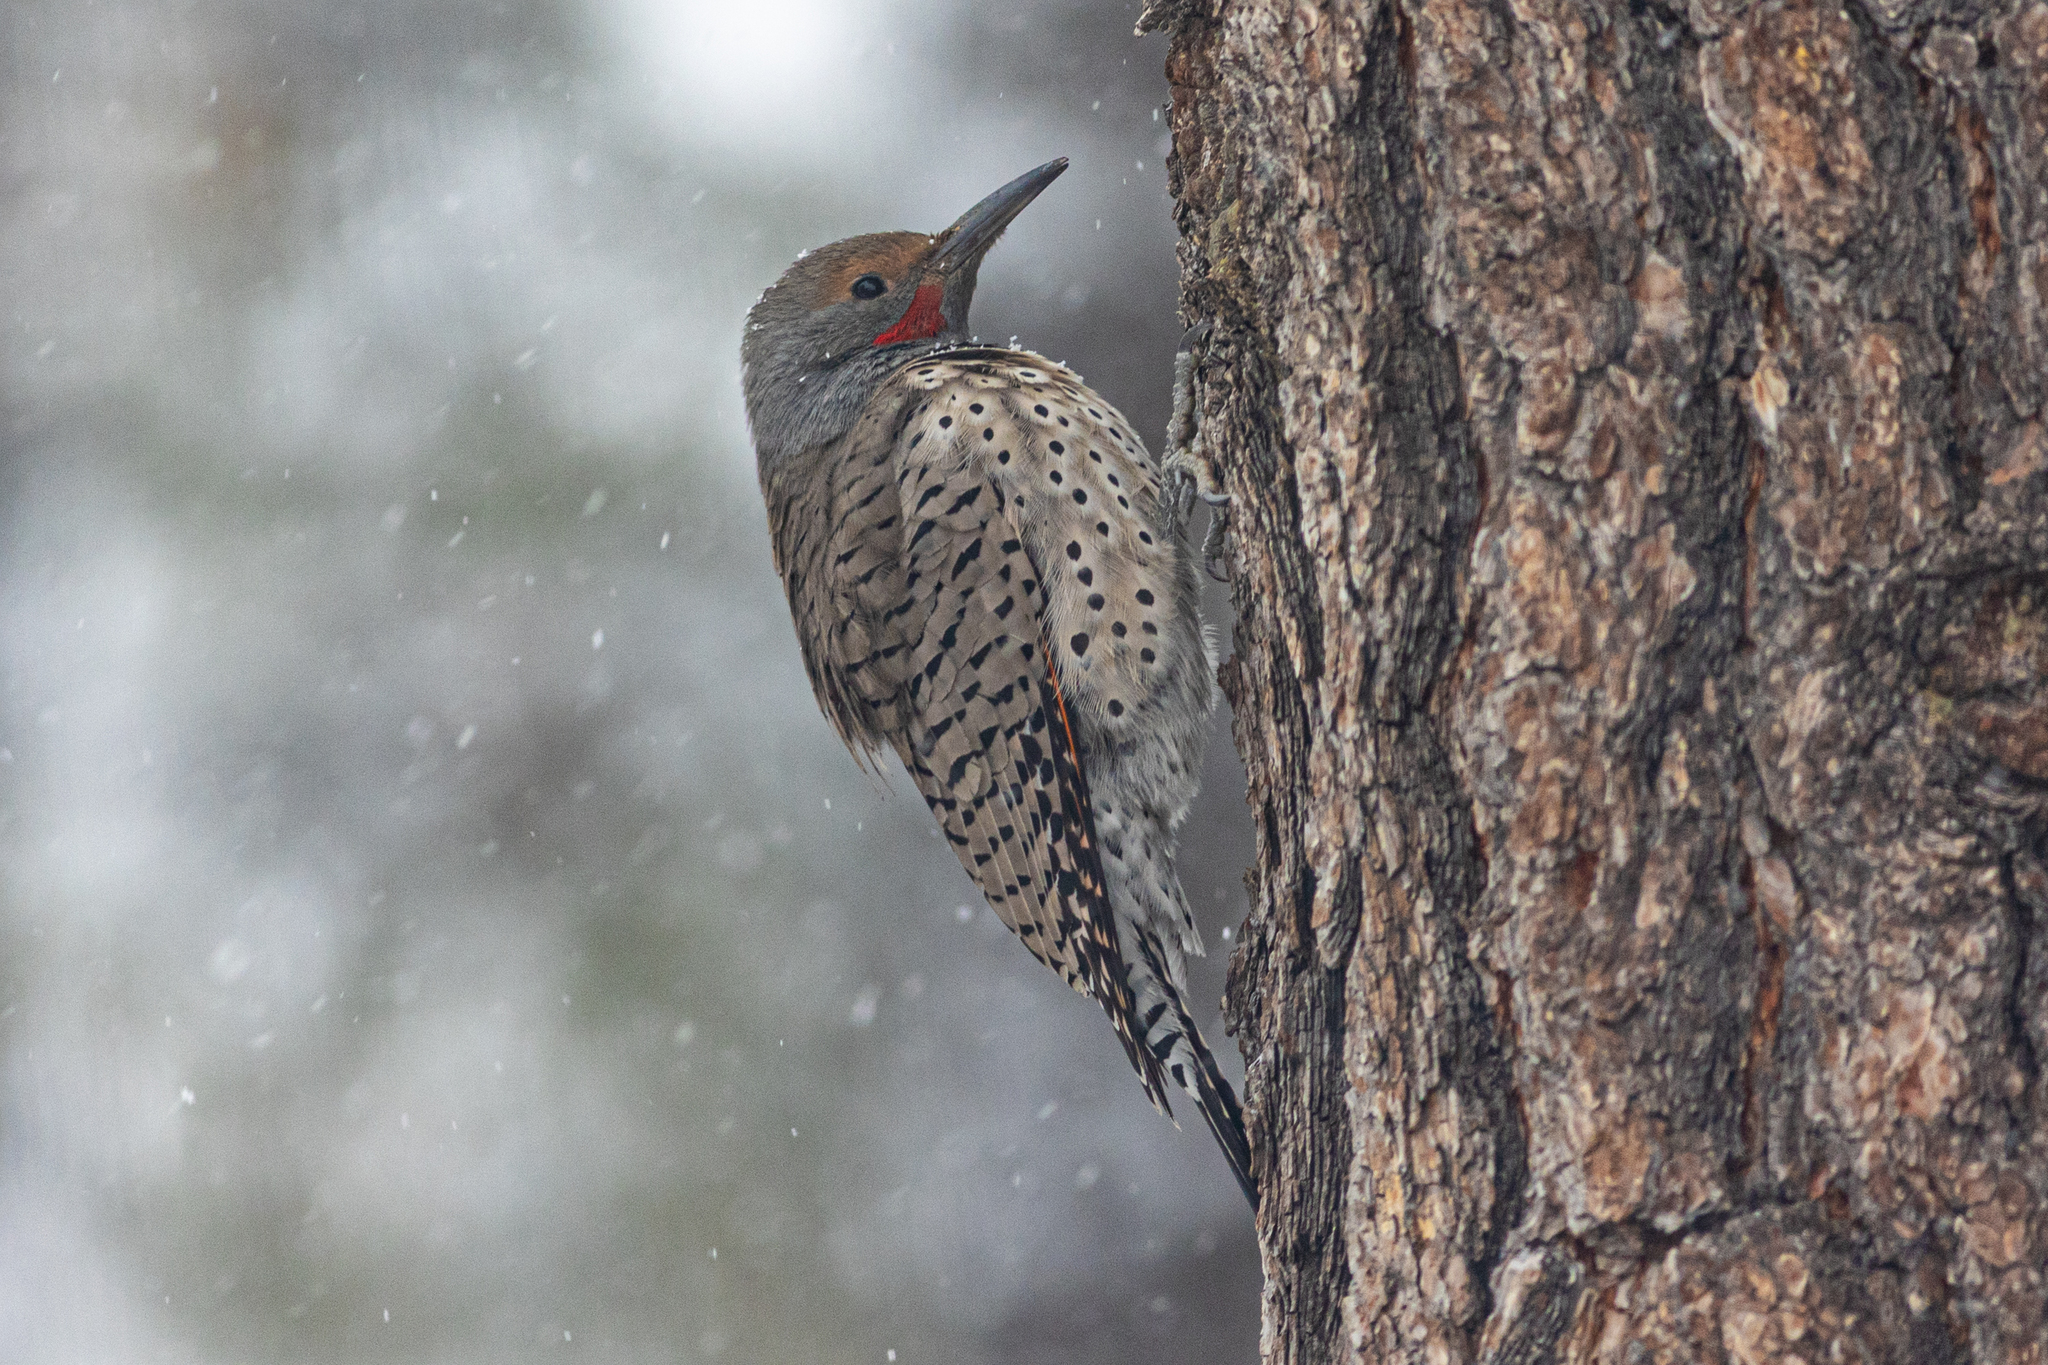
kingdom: Animalia
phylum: Chordata
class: Aves
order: Piciformes
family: Picidae
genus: Colaptes
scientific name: Colaptes auratus
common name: Northern flicker
